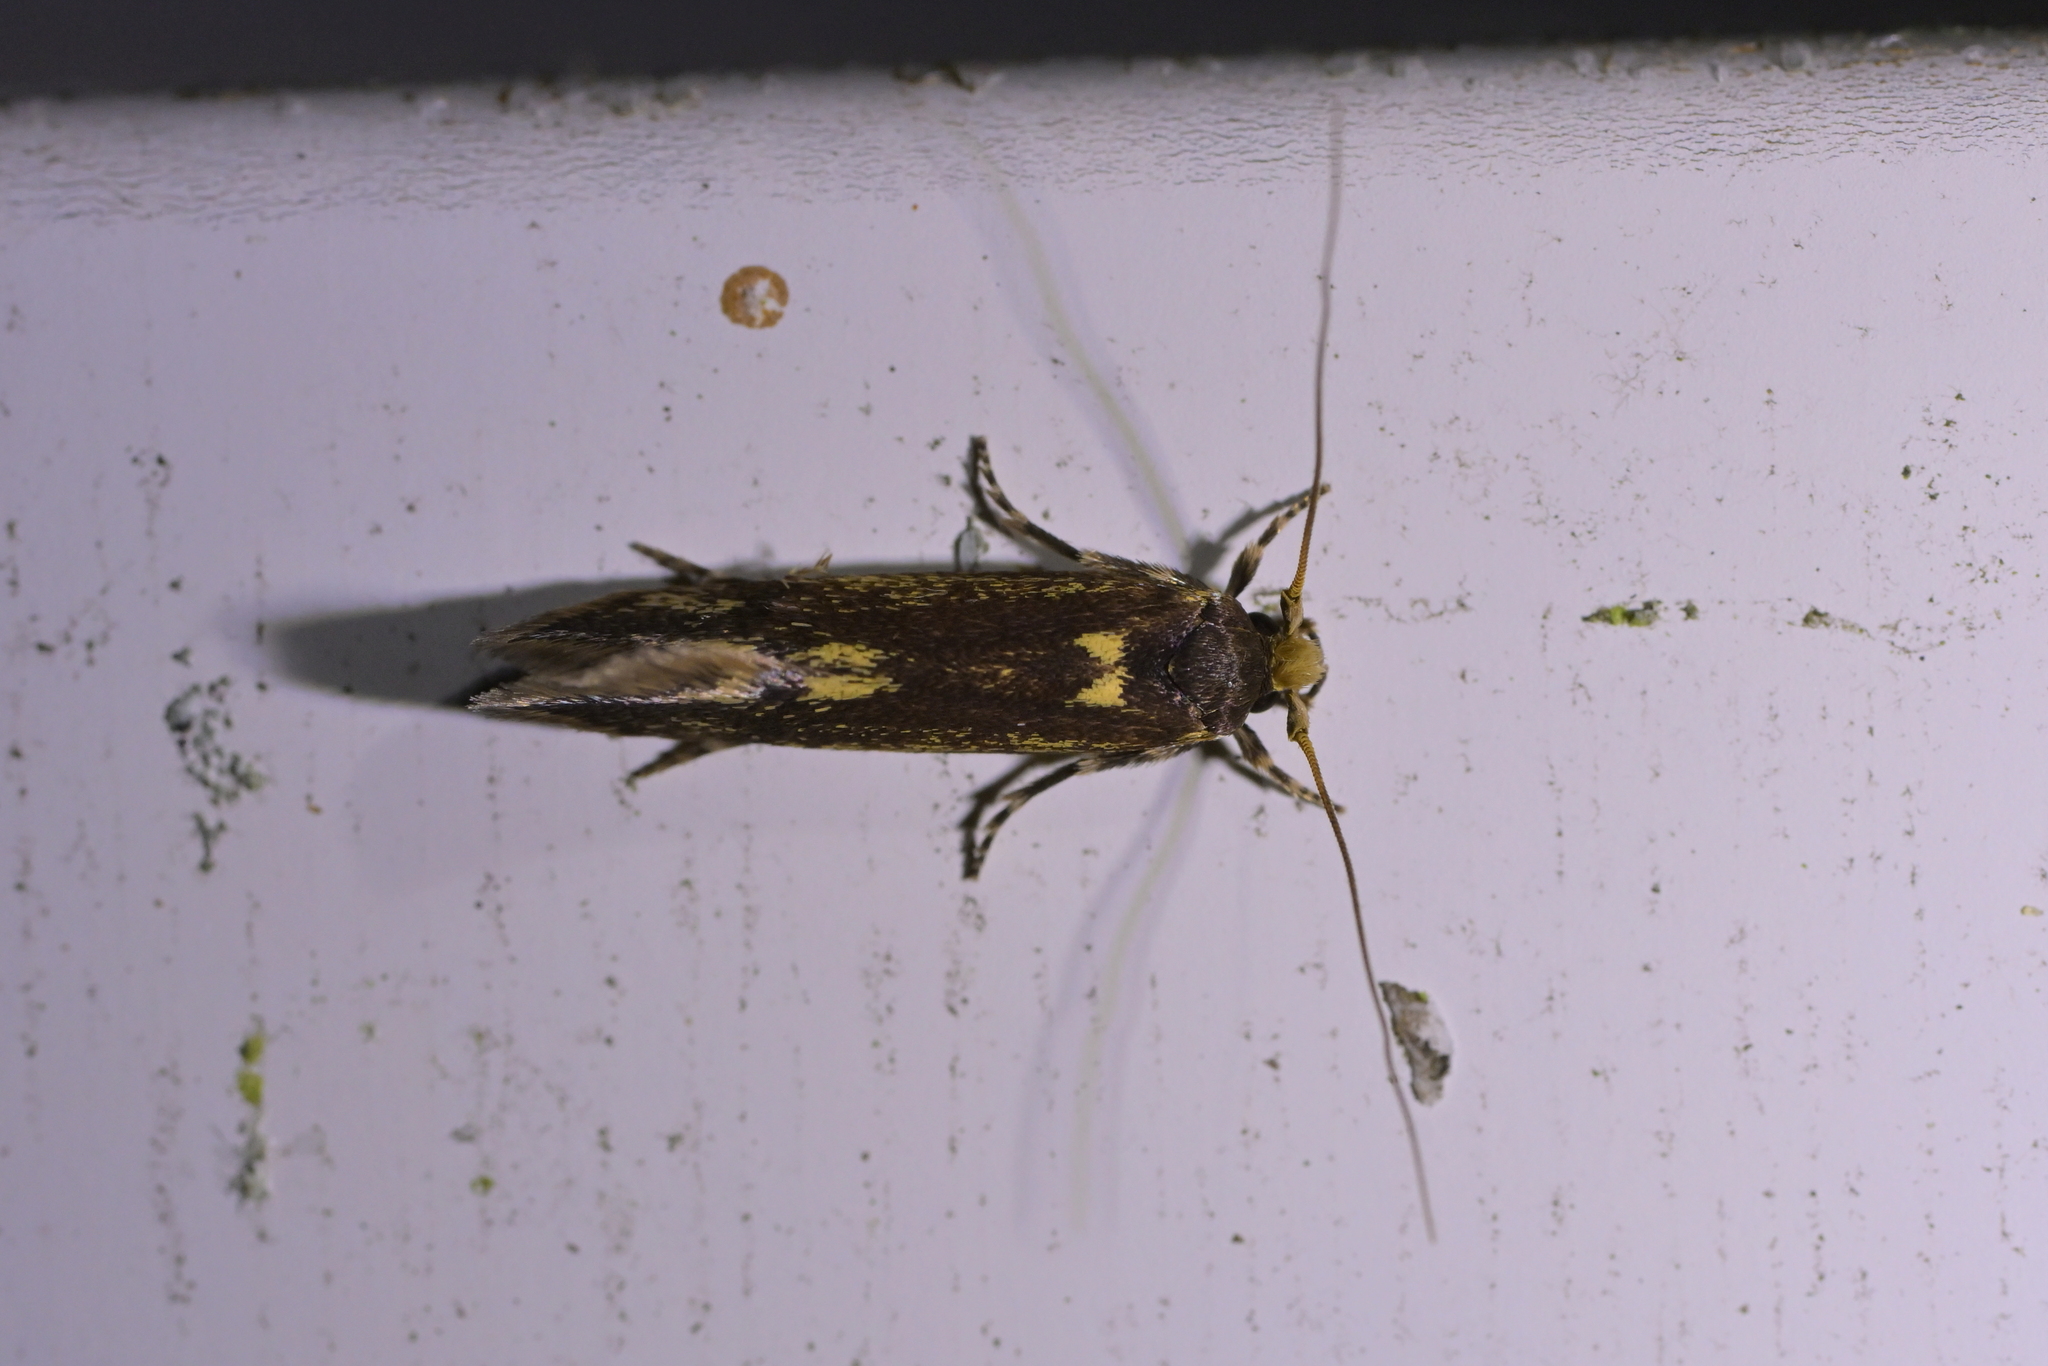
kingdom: Animalia
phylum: Arthropoda
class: Insecta
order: Lepidoptera
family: Tineidae
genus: Opogona
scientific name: Opogona omoscopa
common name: Moth
